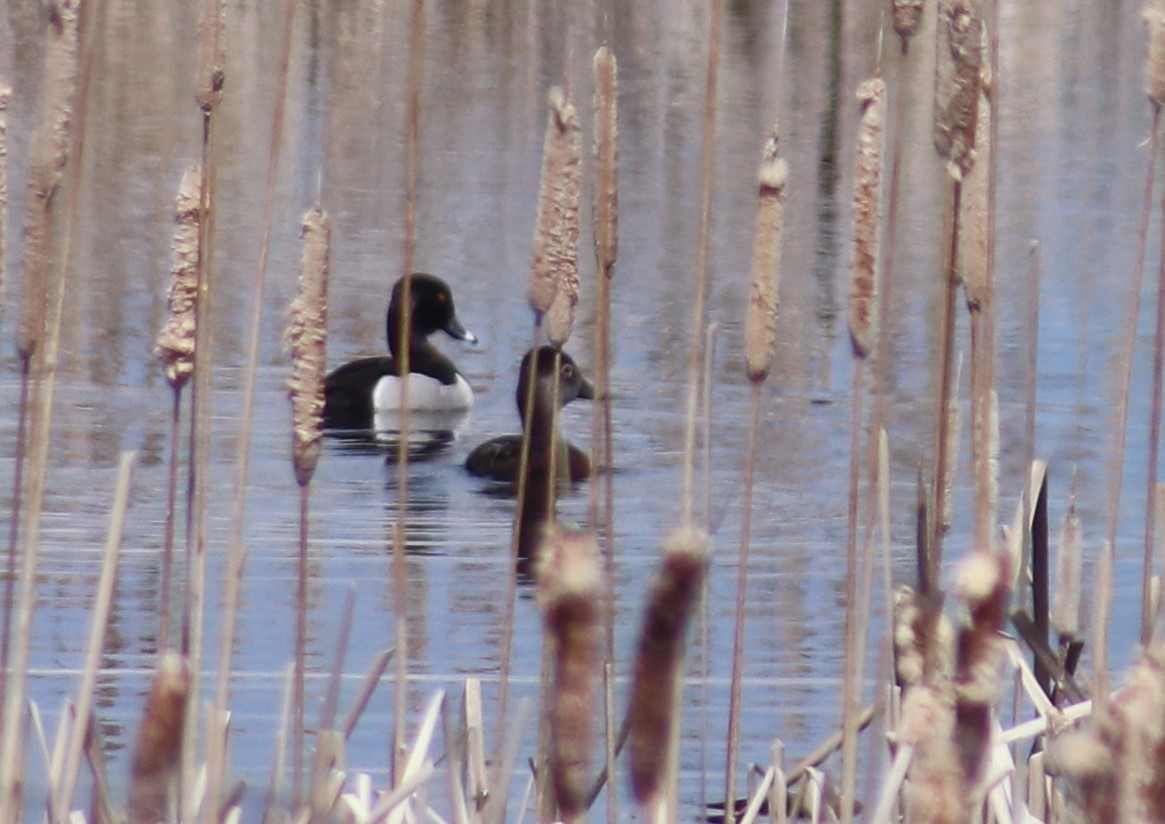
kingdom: Animalia
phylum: Chordata
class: Aves
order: Anseriformes
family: Anatidae
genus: Aythya
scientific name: Aythya collaris
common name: Ring-necked duck
